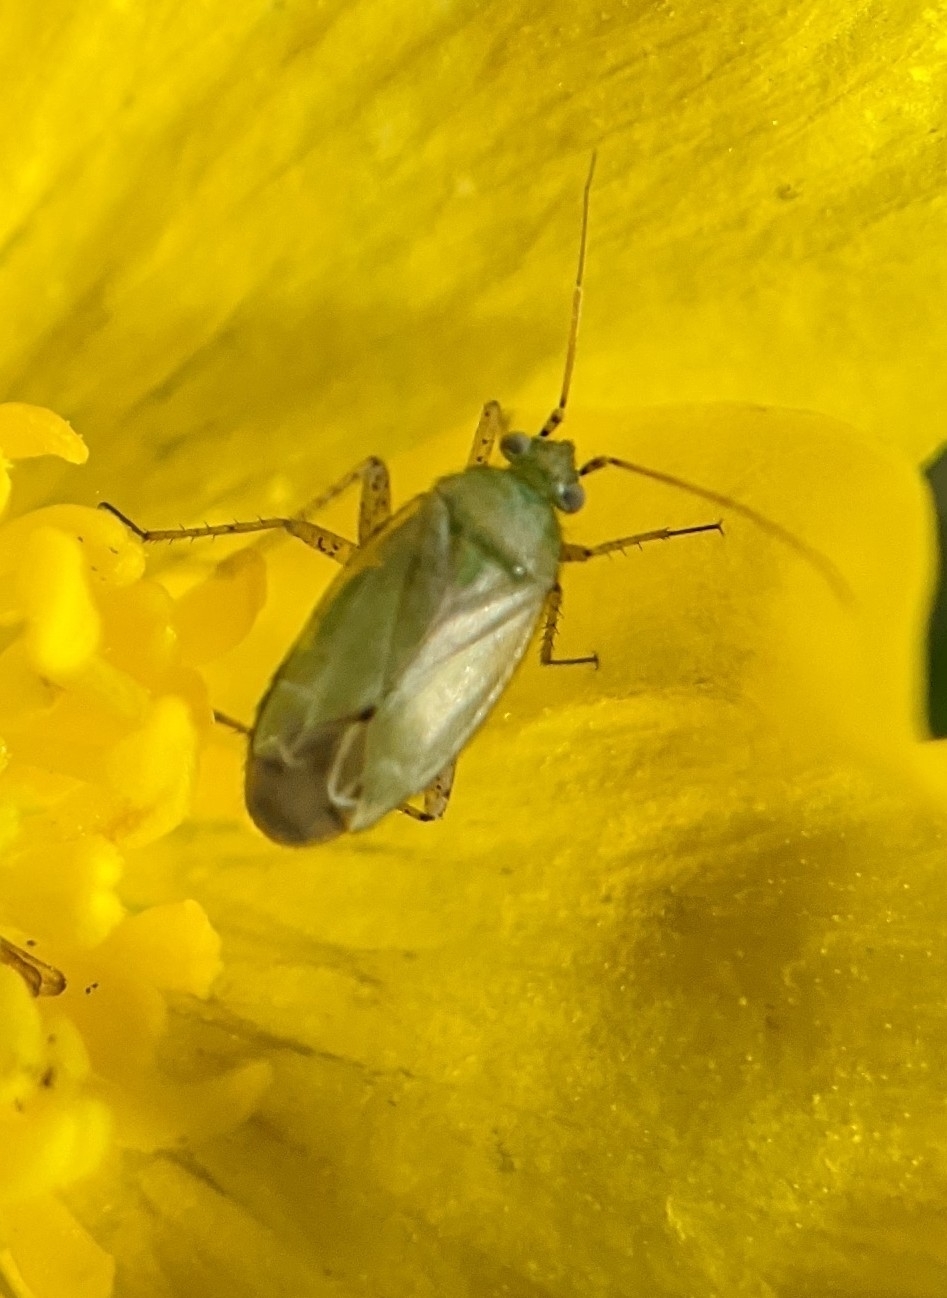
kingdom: Animalia
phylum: Arthropoda
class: Insecta
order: Hemiptera
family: Miridae
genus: Plagiognathus
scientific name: Plagiognathus chrysanthemi
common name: Plant bug
